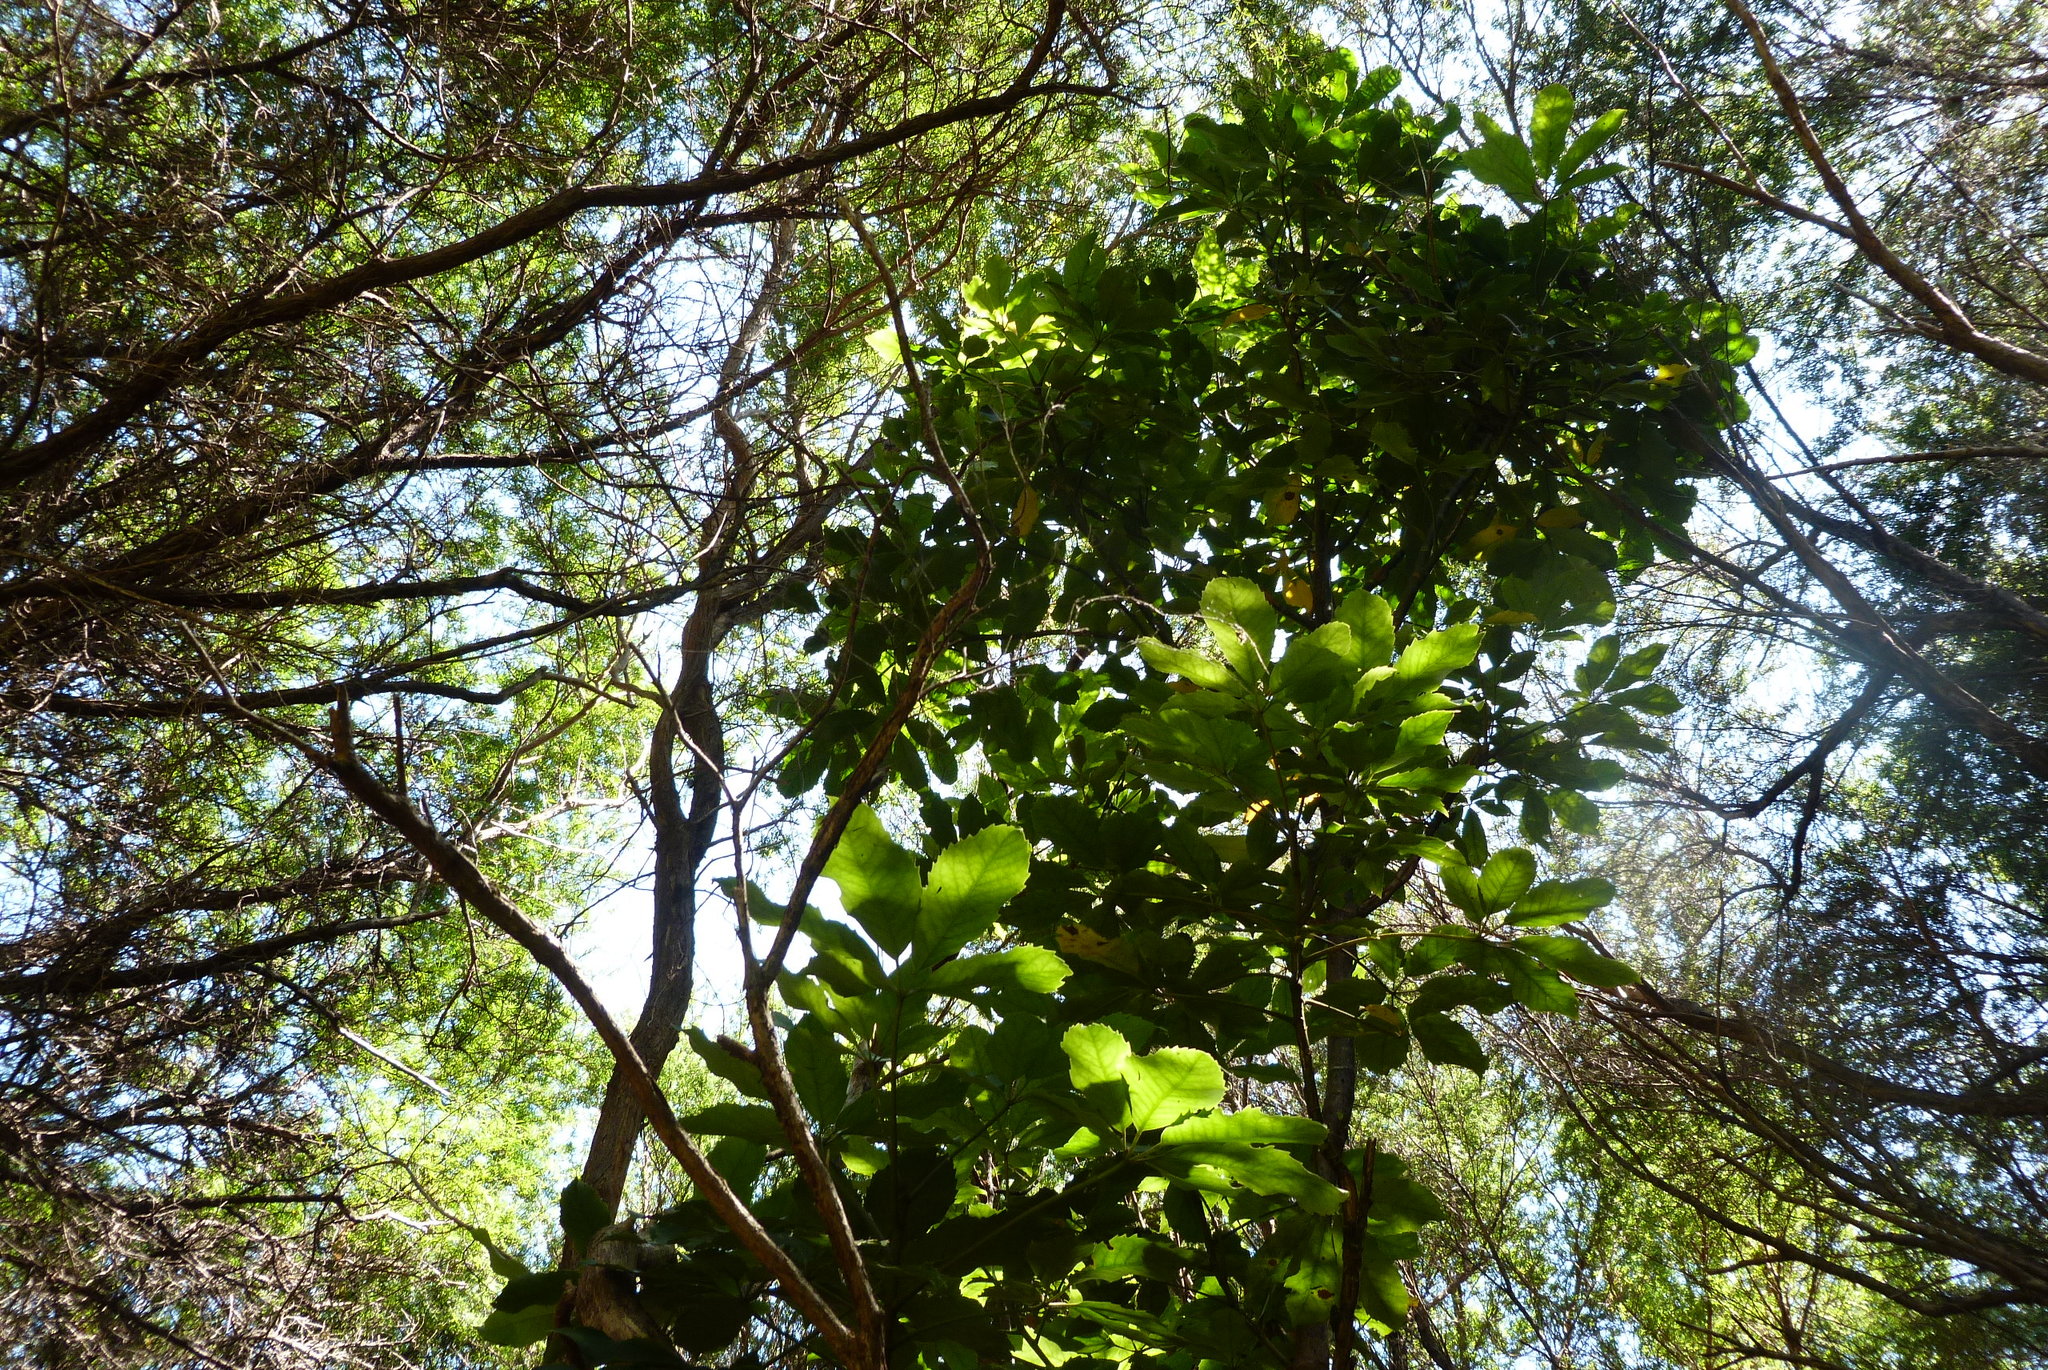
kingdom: Plantae
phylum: Tracheophyta
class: Magnoliopsida
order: Apiales
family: Araliaceae
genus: Neopanax
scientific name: Neopanax arboreus
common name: Five-fingers
